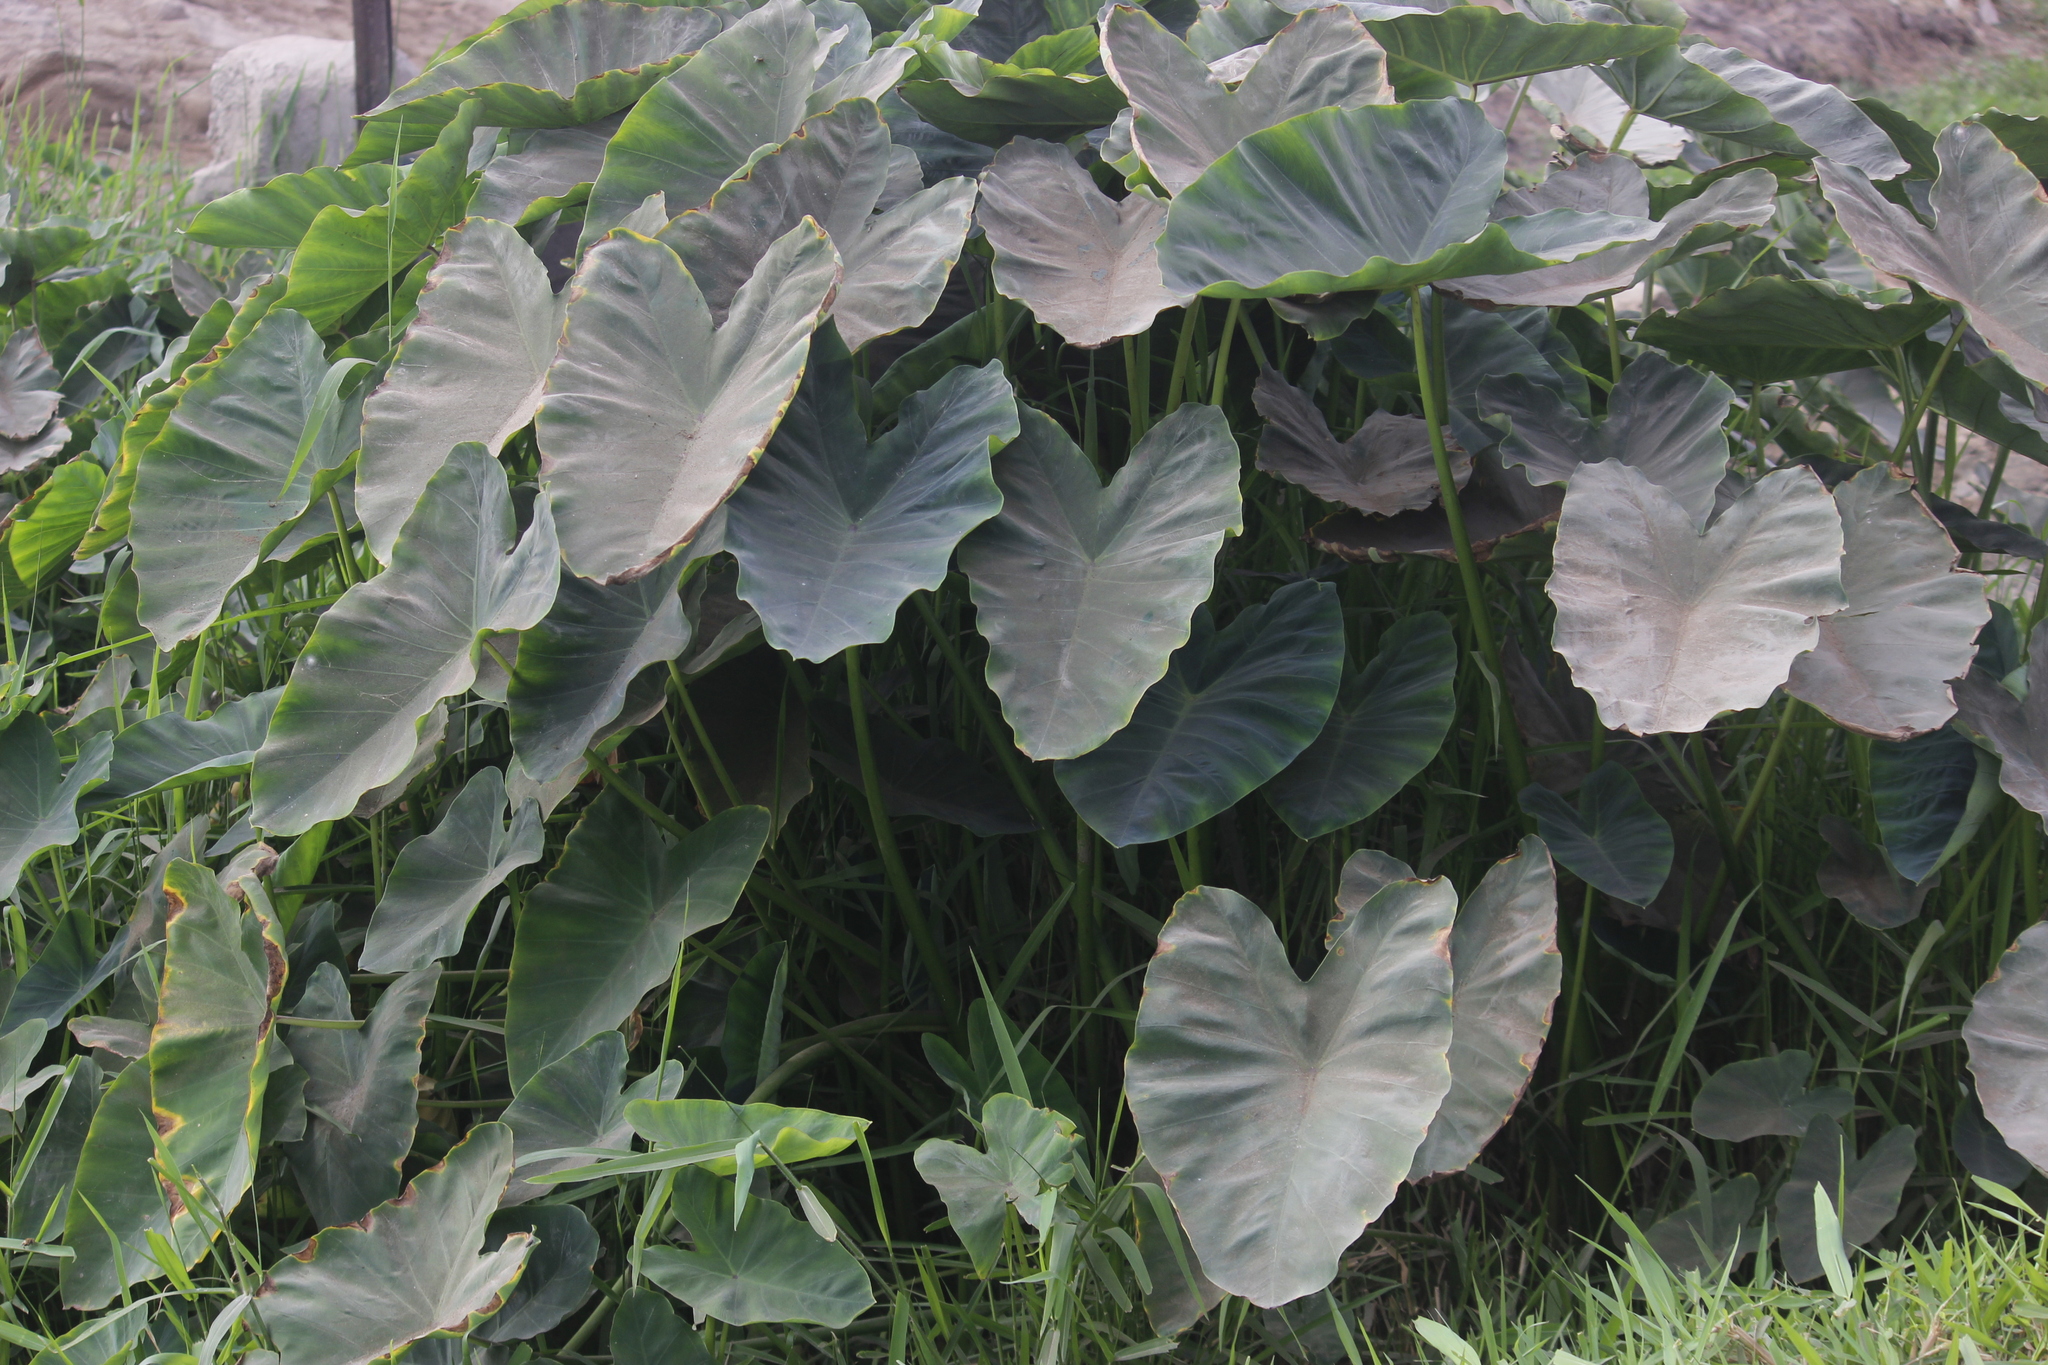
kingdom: Plantae
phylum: Tracheophyta
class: Liliopsida
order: Alismatales
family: Araceae
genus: Colocasia
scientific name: Colocasia esculenta
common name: Taro
